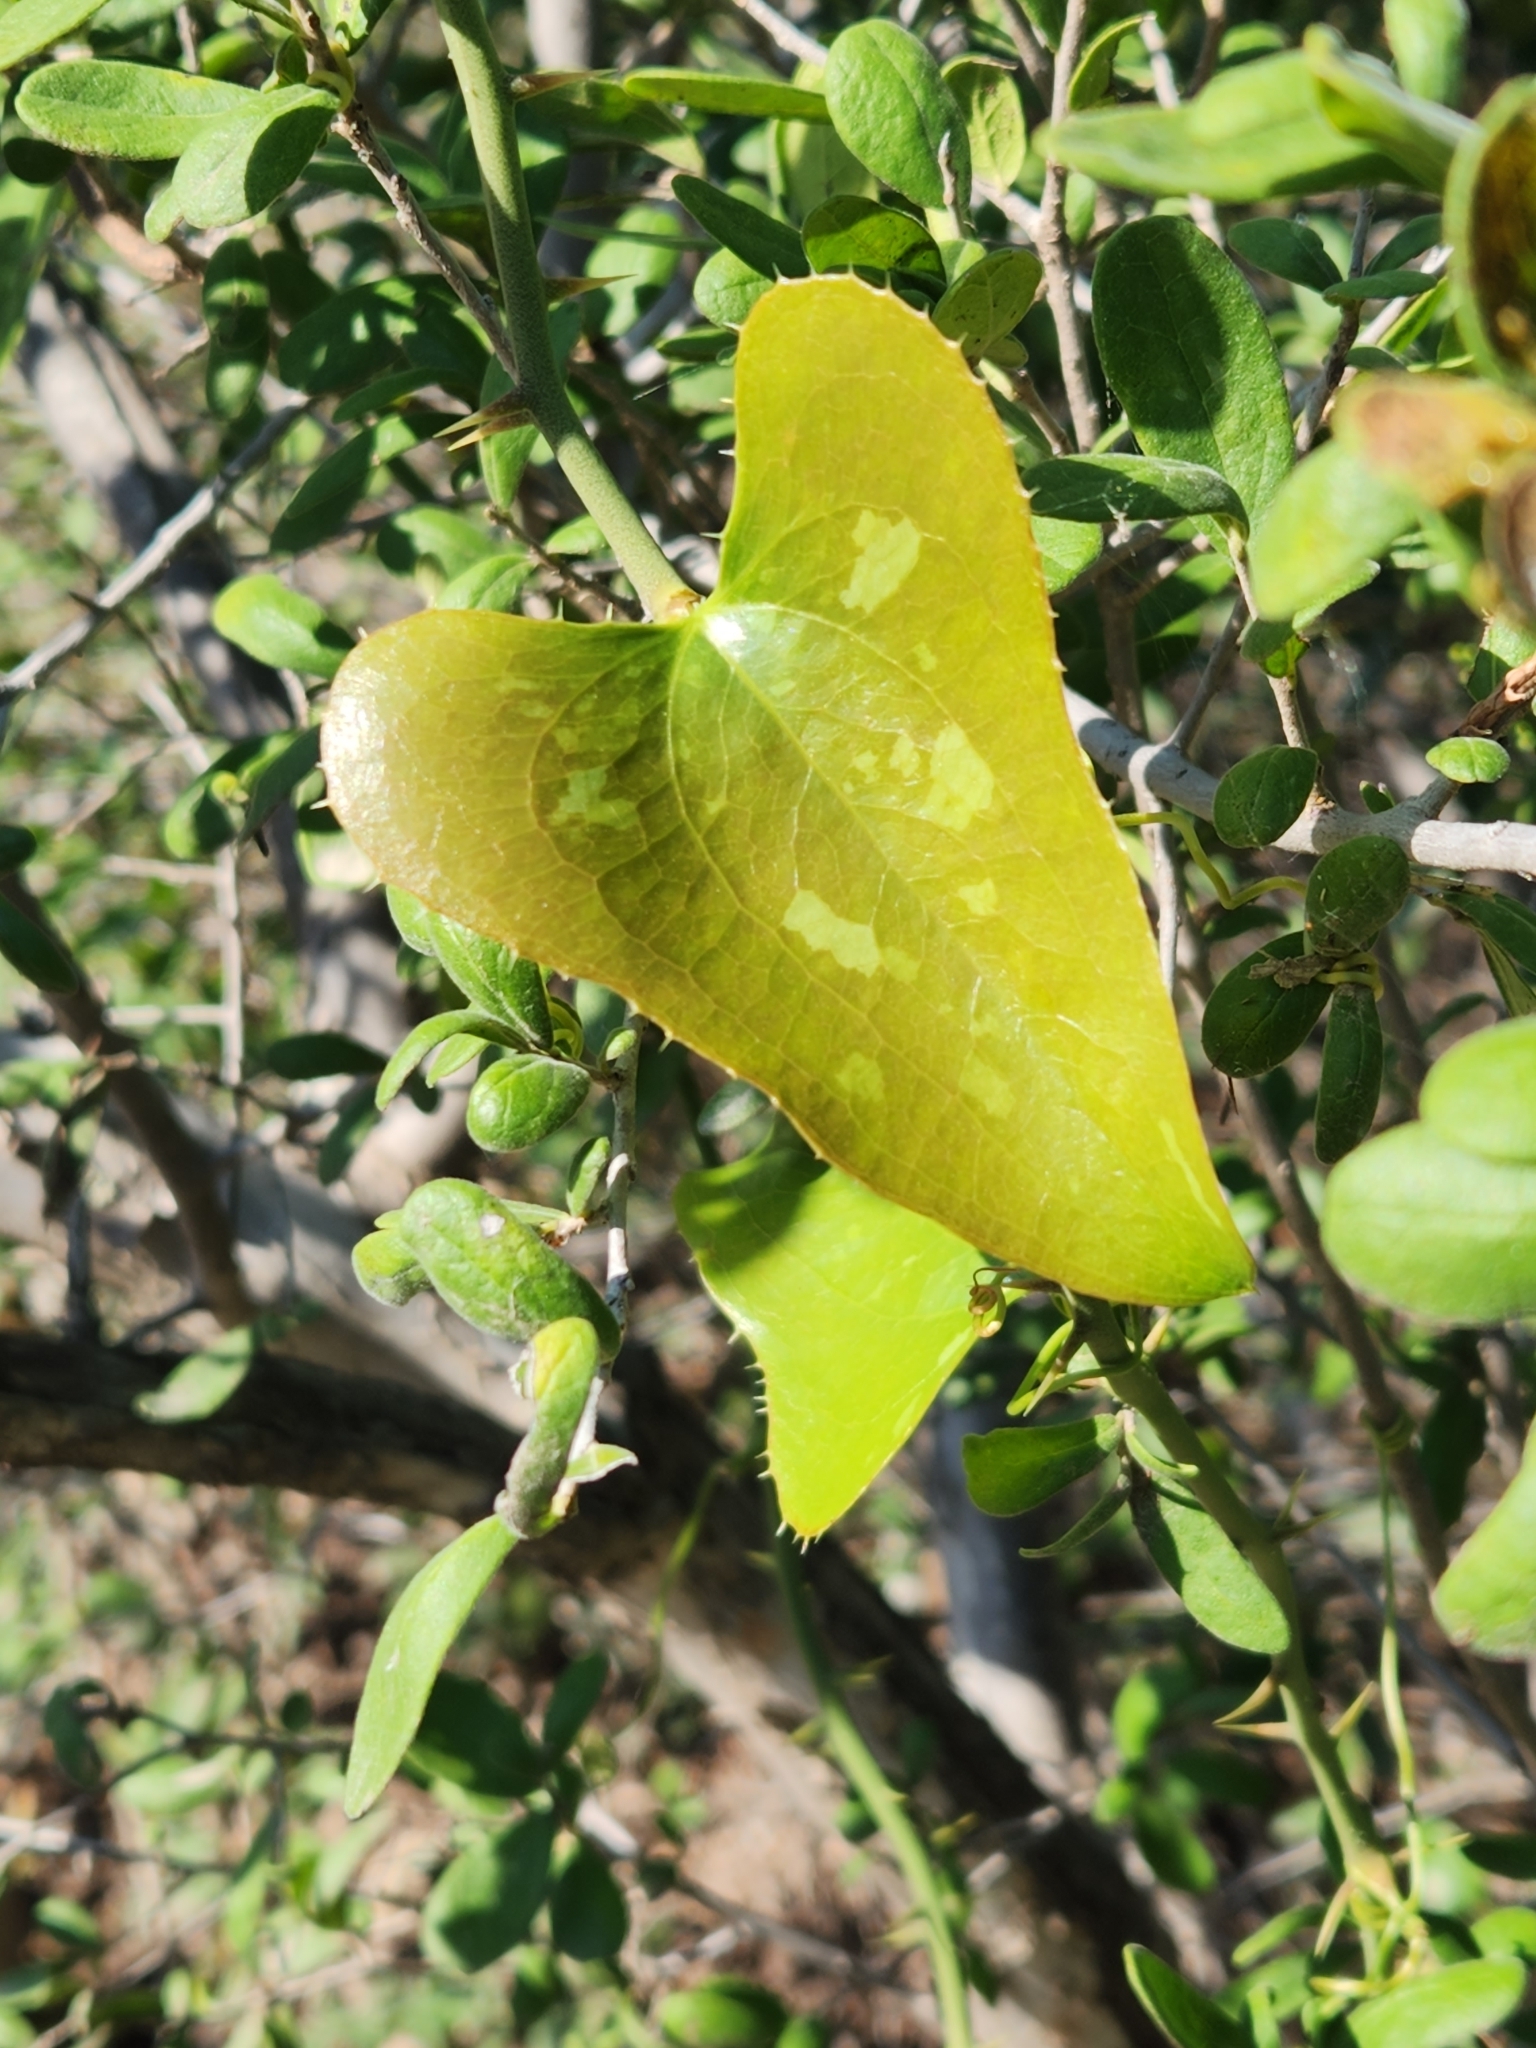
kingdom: Plantae
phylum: Tracheophyta
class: Liliopsida
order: Liliales
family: Smilacaceae
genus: Smilax
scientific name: Smilax bona-nox
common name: Catbrier
